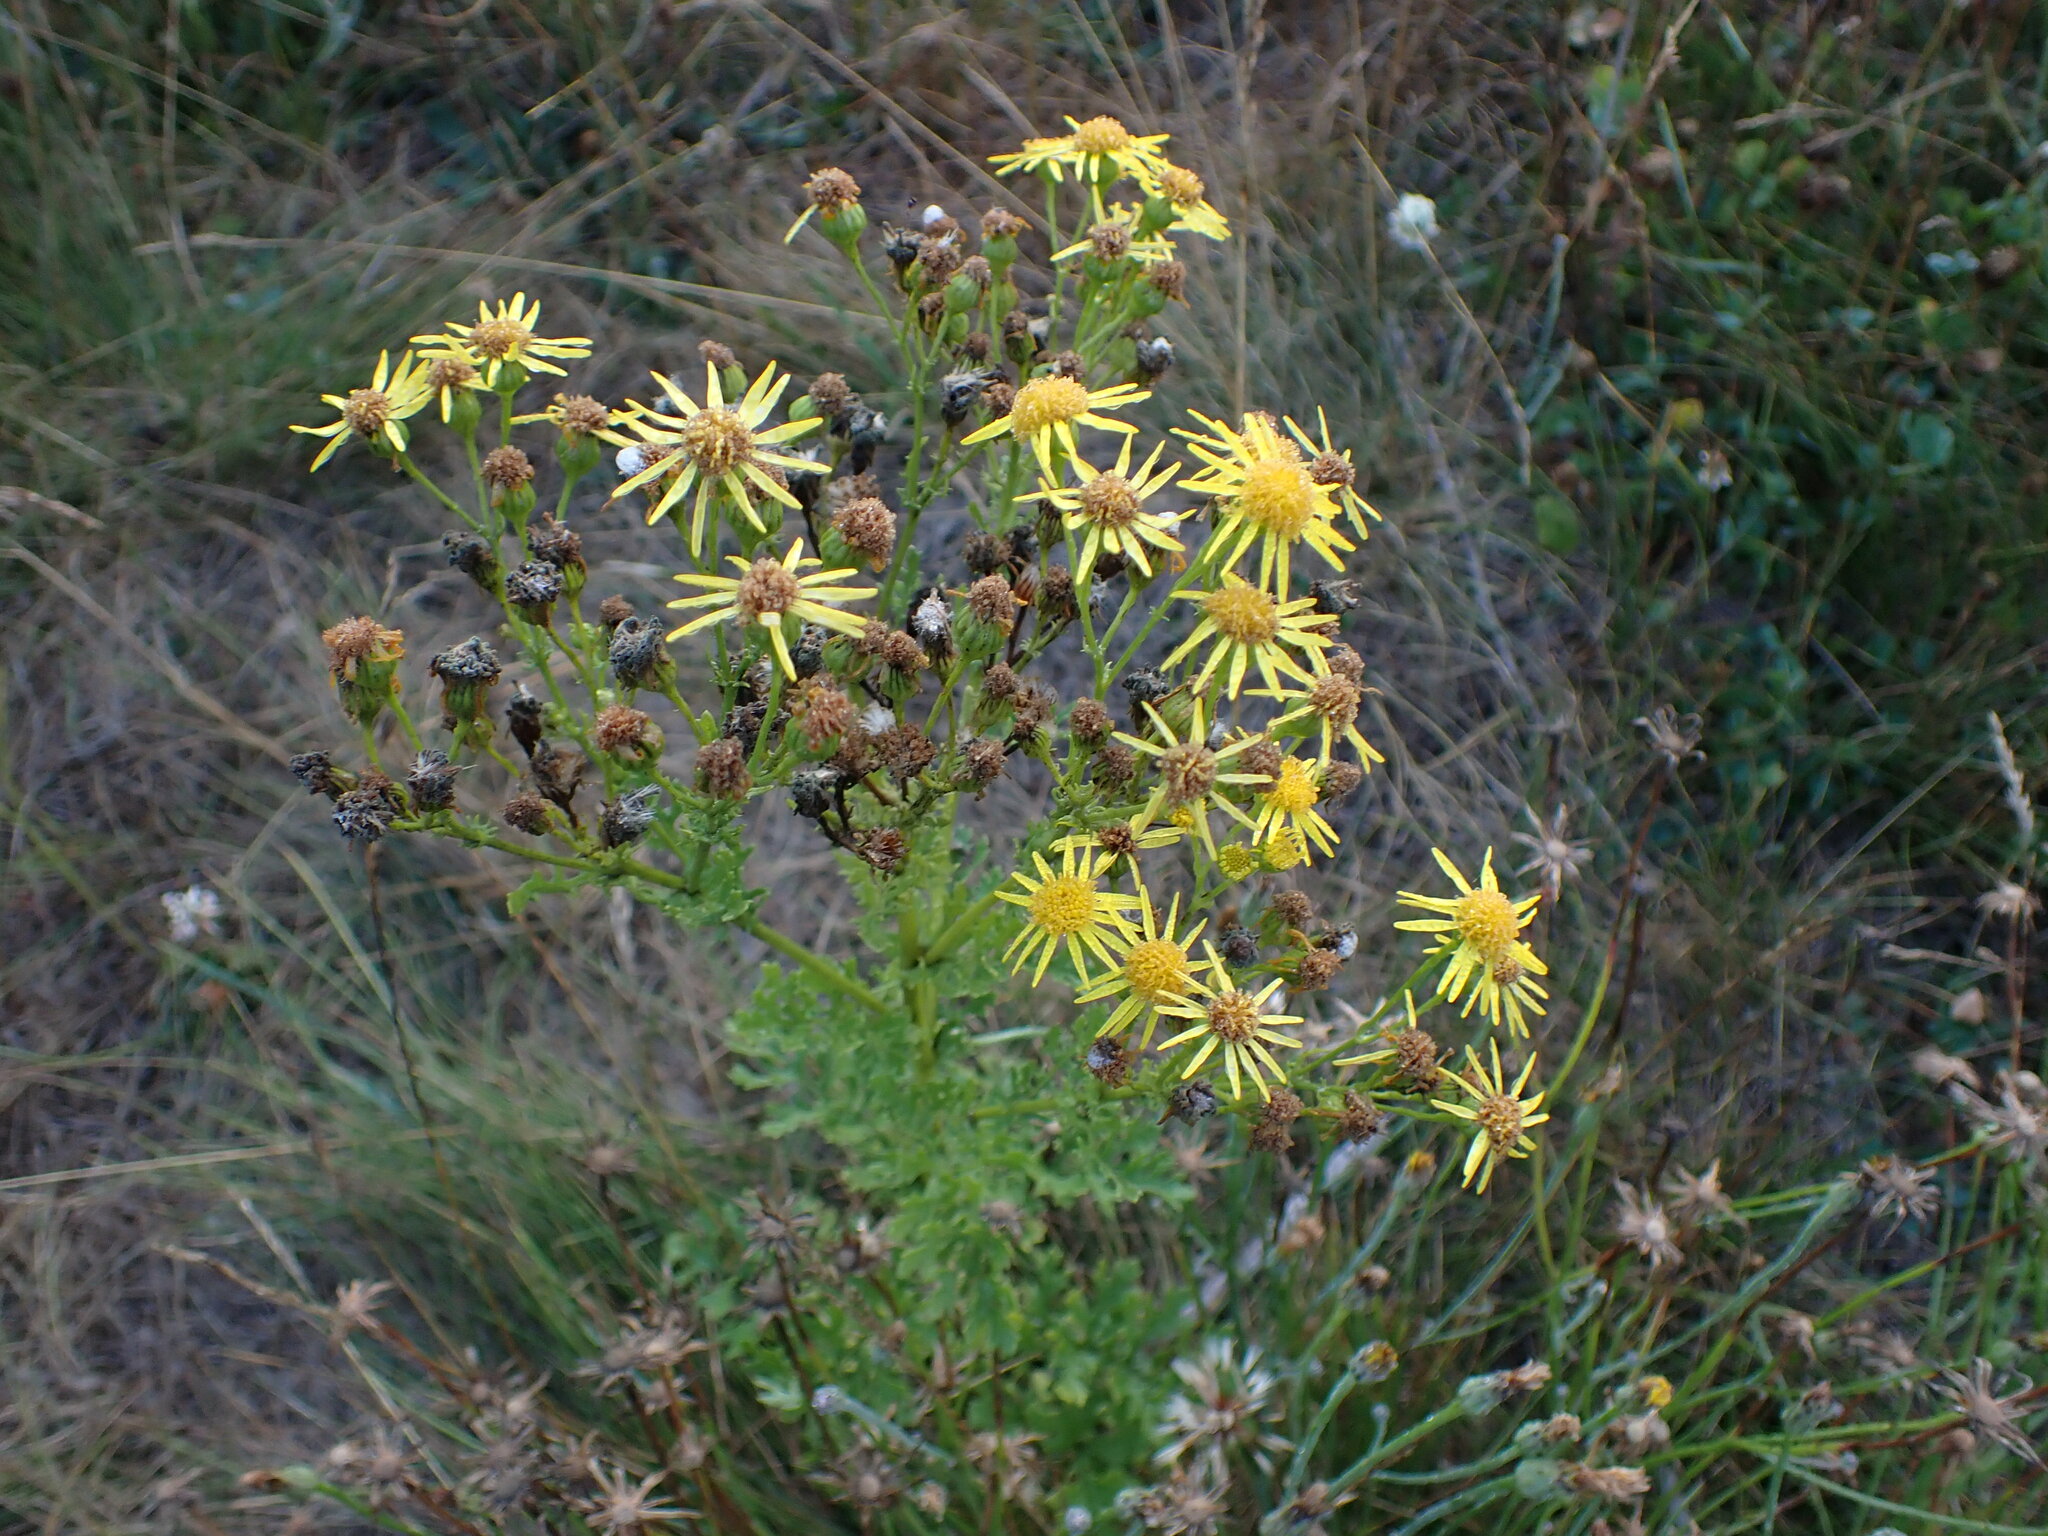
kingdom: Plantae
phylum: Tracheophyta
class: Magnoliopsida
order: Asterales
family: Asteraceae
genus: Jacobaea
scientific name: Jacobaea vulgaris
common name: Stinking willie
